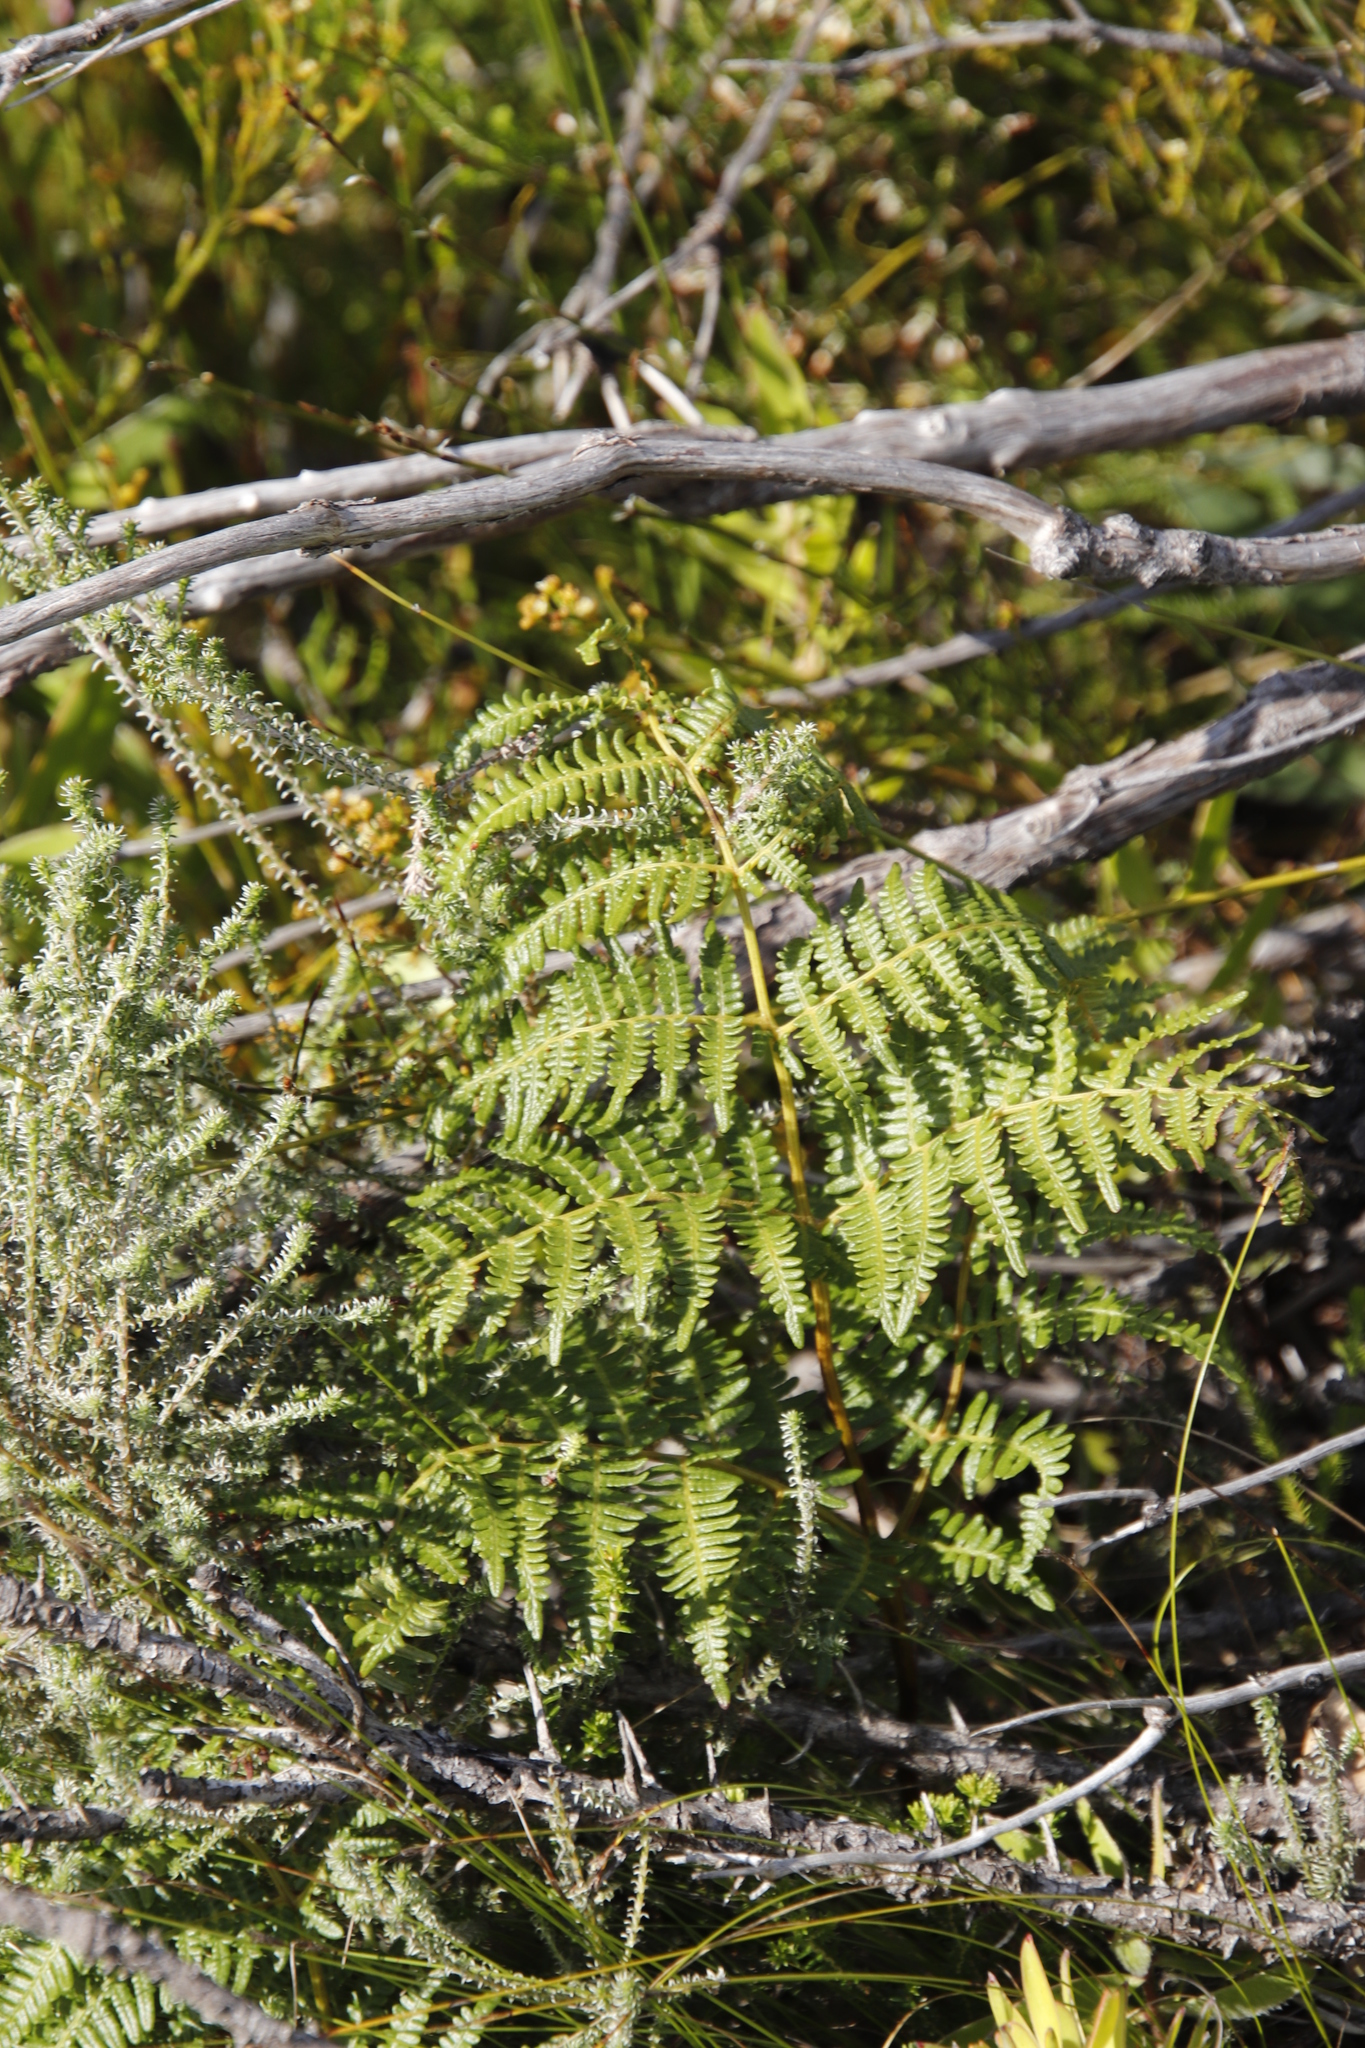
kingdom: Plantae
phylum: Tracheophyta
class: Polypodiopsida
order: Polypodiales
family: Dennstaedtiaceae
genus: Pteridium
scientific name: Pteridium aquilinum
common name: Bracken
